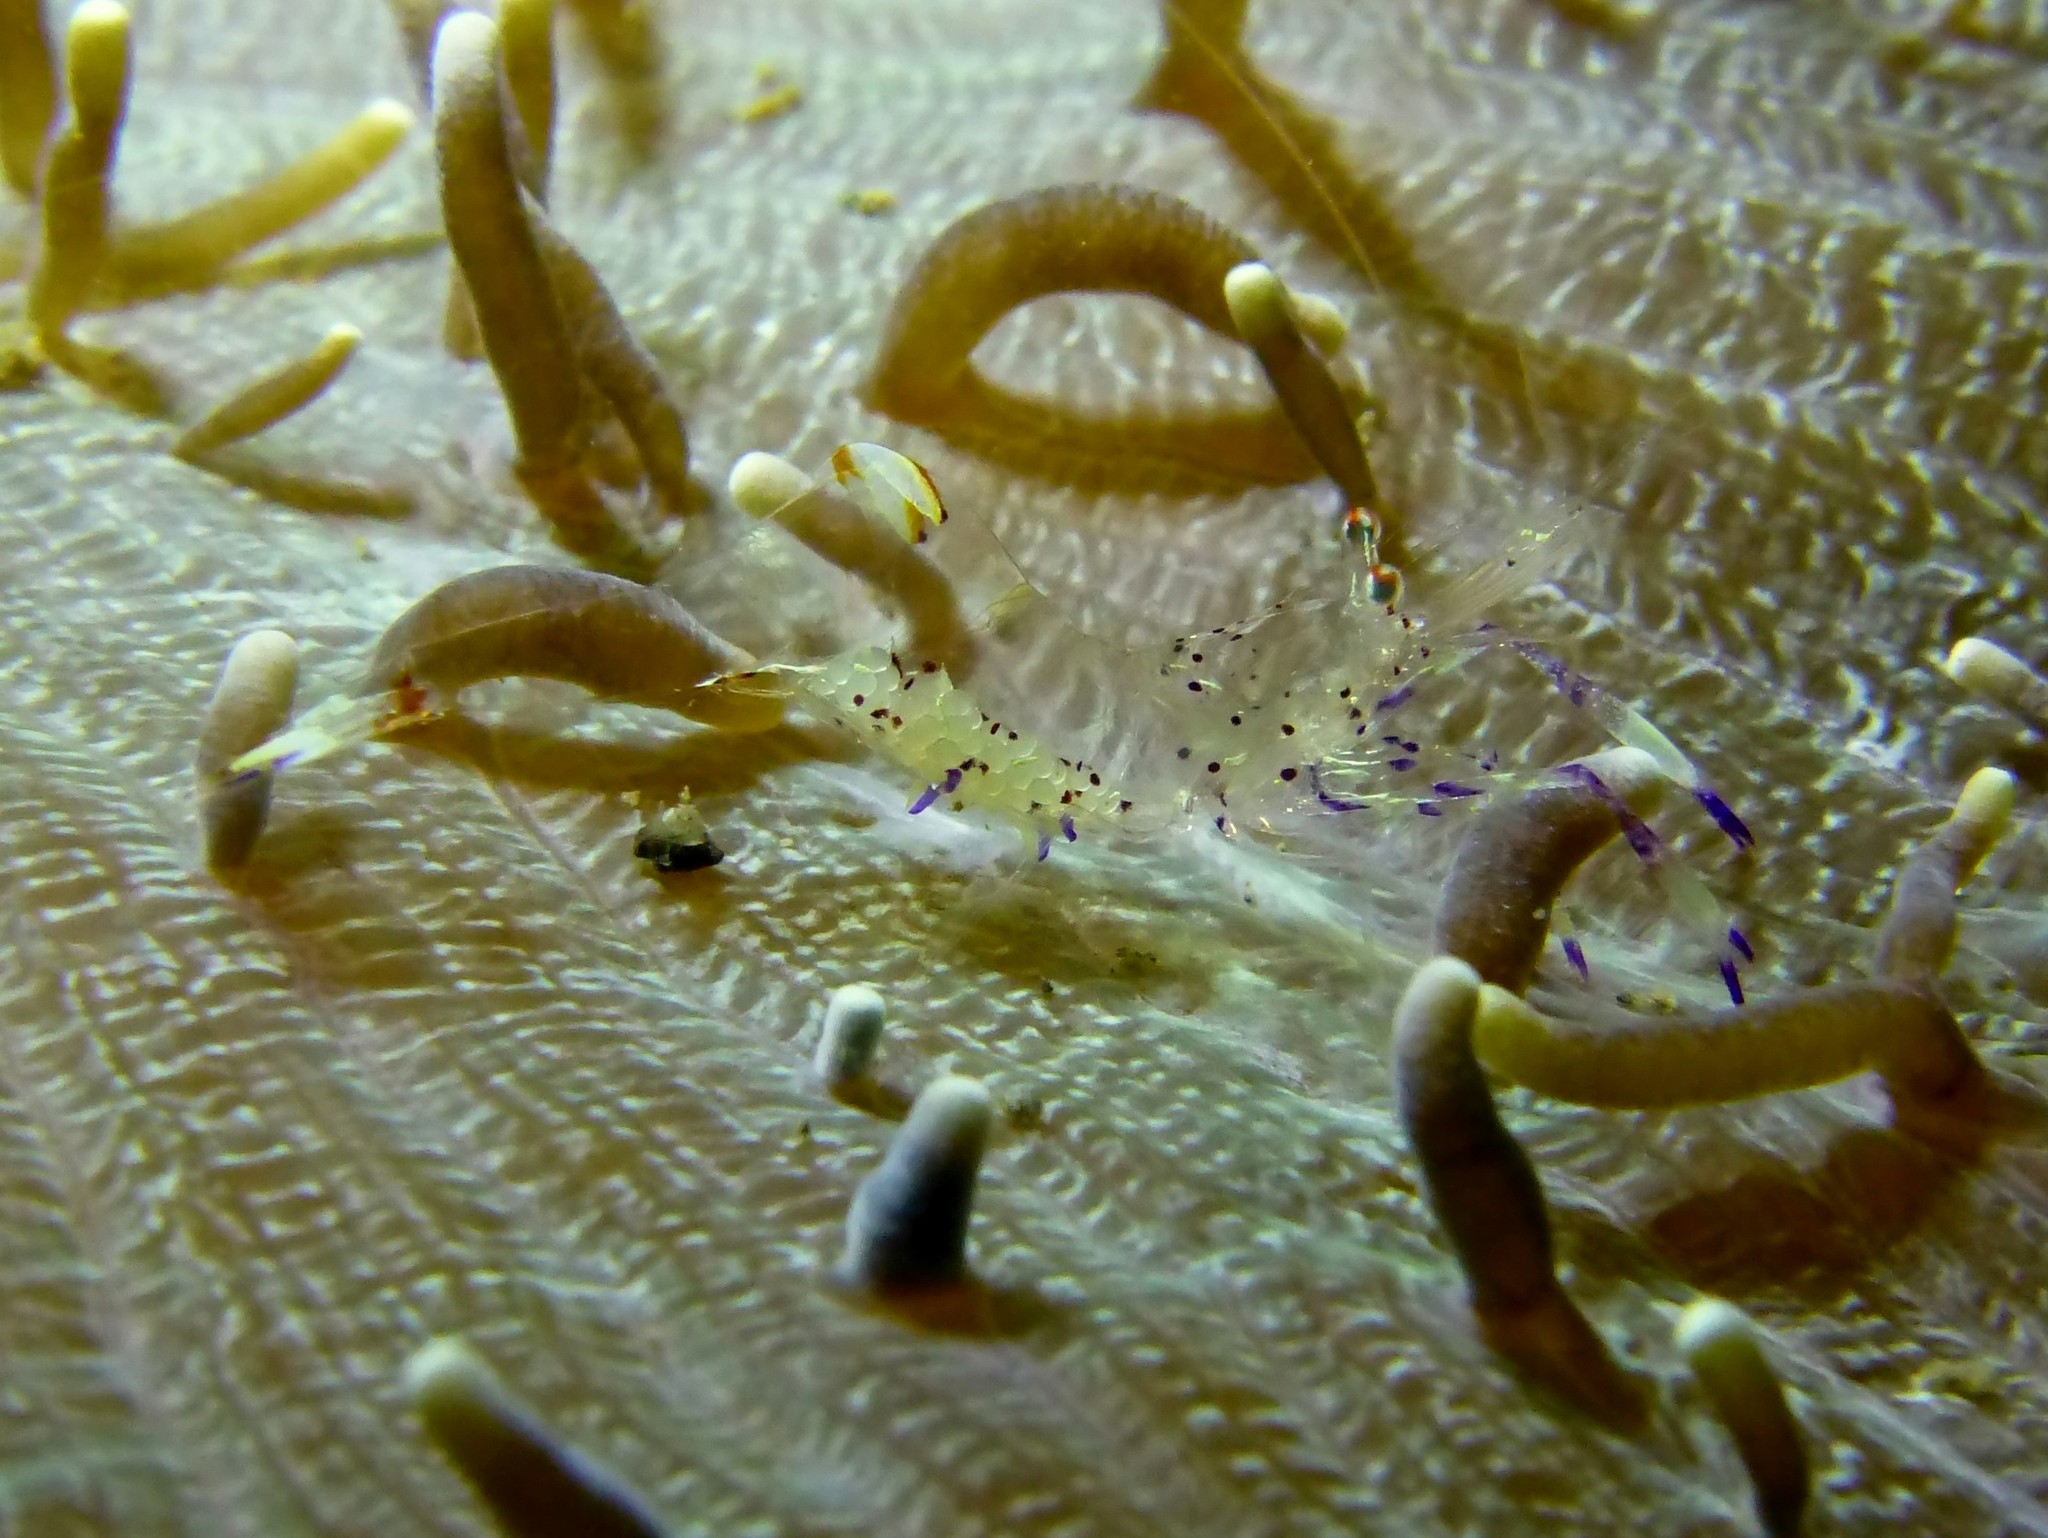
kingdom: Animalia
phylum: Arthropoda
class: Malacostraca
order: Decapoda
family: Palaemonidae
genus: Ancylomenes
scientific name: Ancylomenes holthuisi
